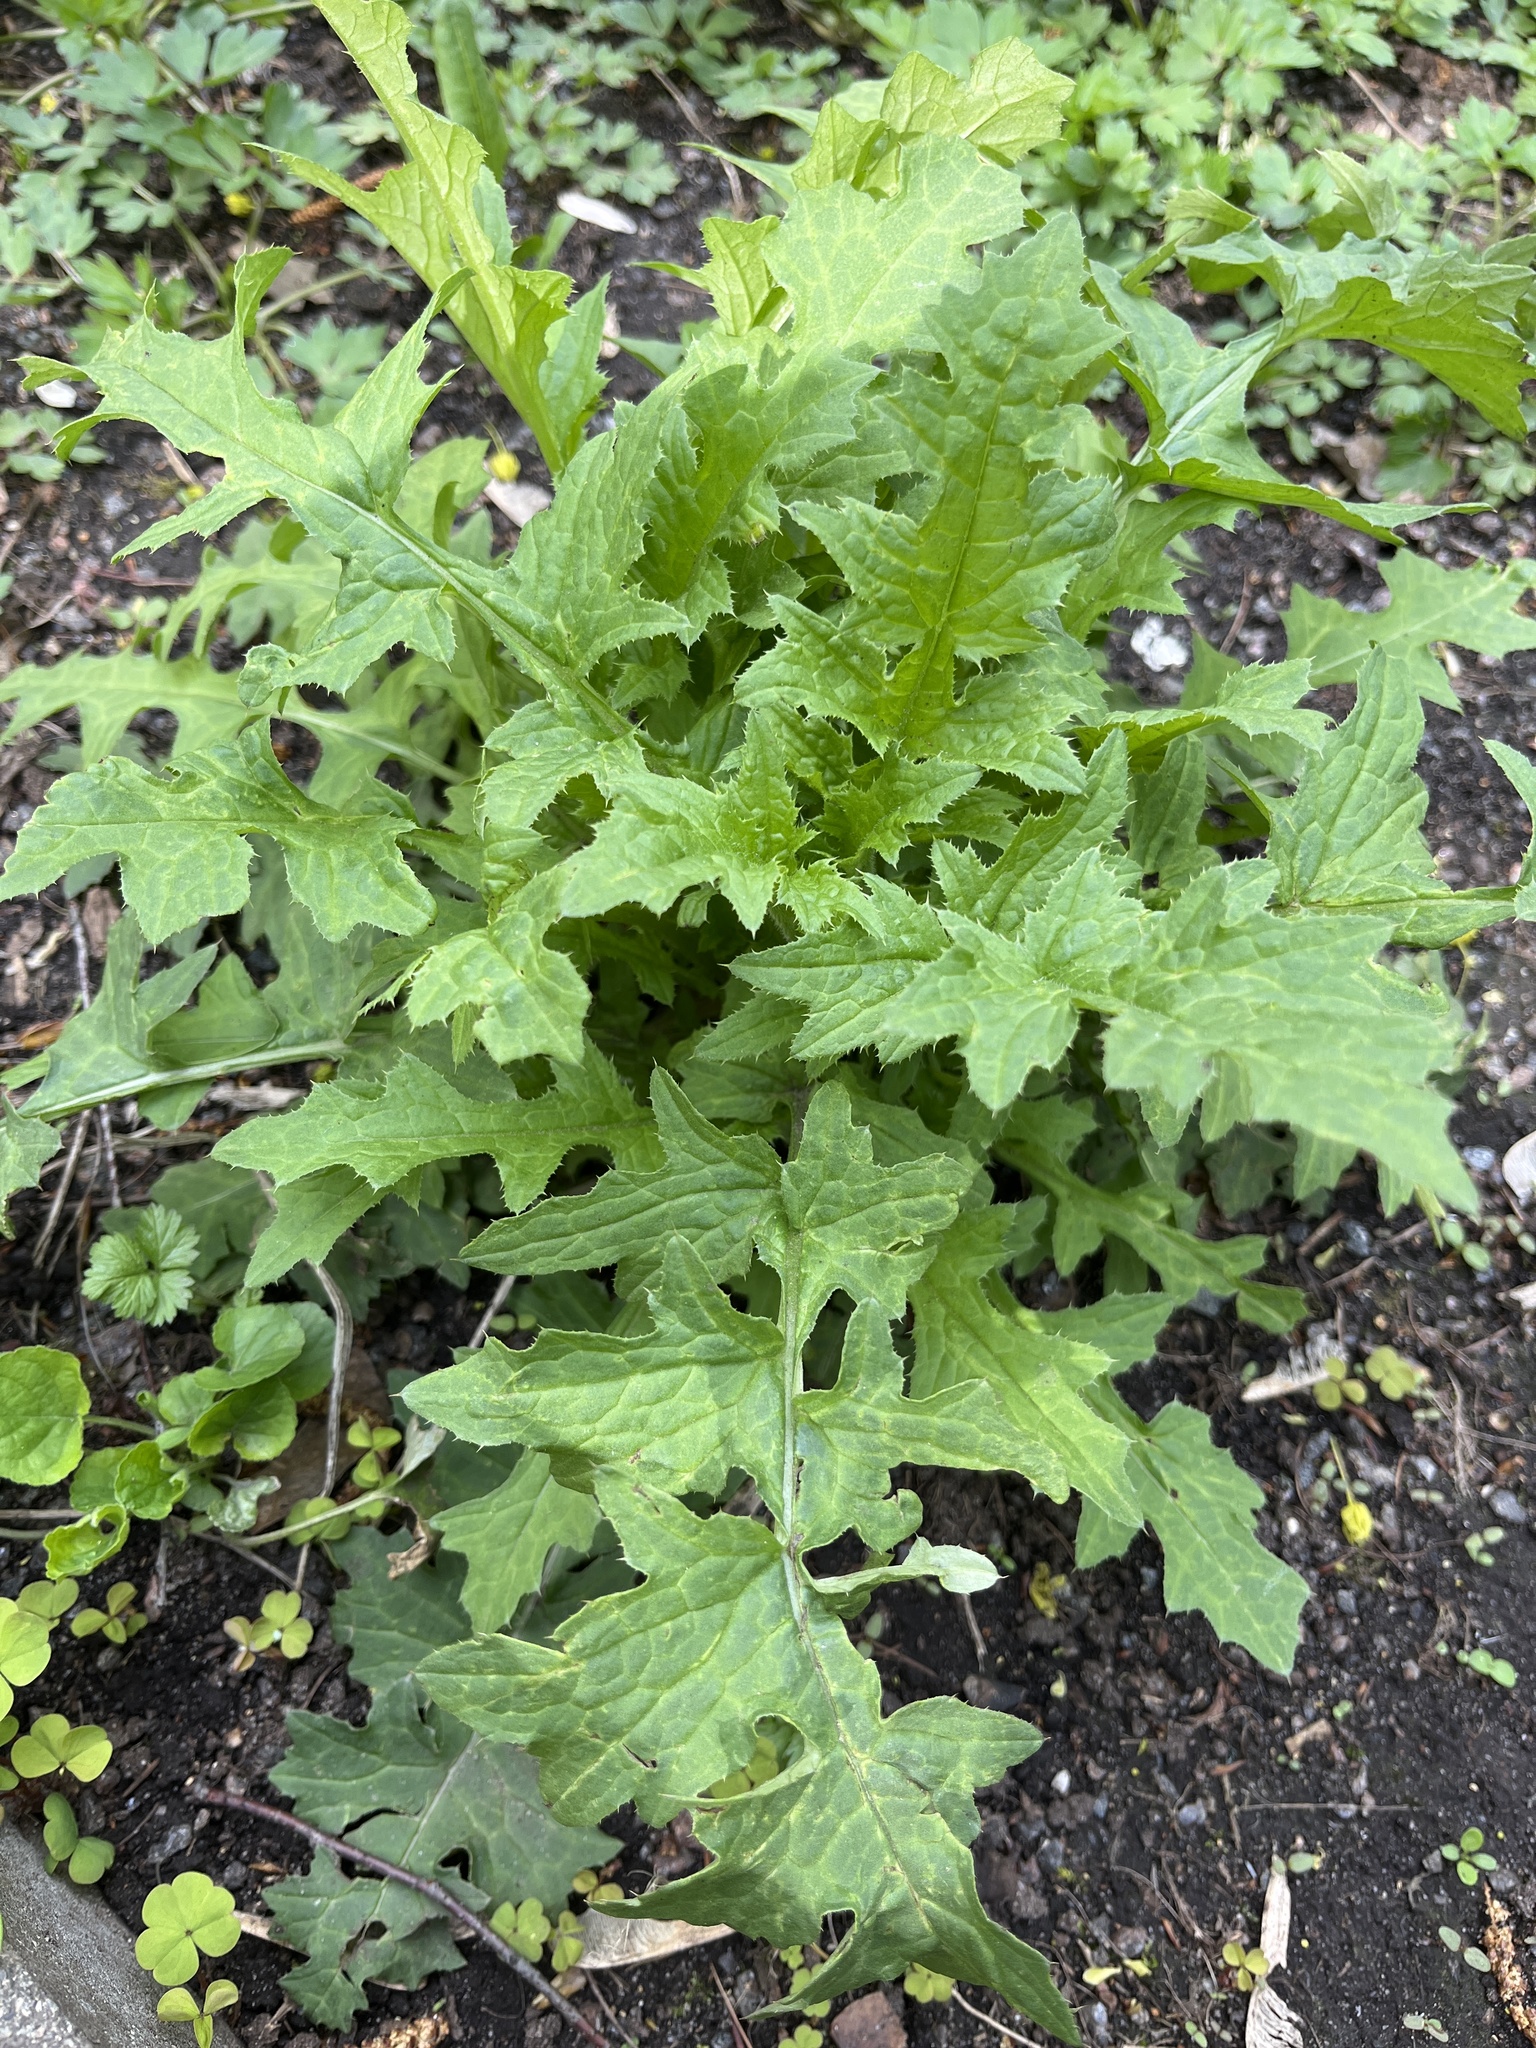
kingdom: Plantae
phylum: Tracheophyta
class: Magnoliopsida
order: Asterales
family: Asteraceae
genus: Carduus
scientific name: Carduus crispus
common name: Welted thistle
